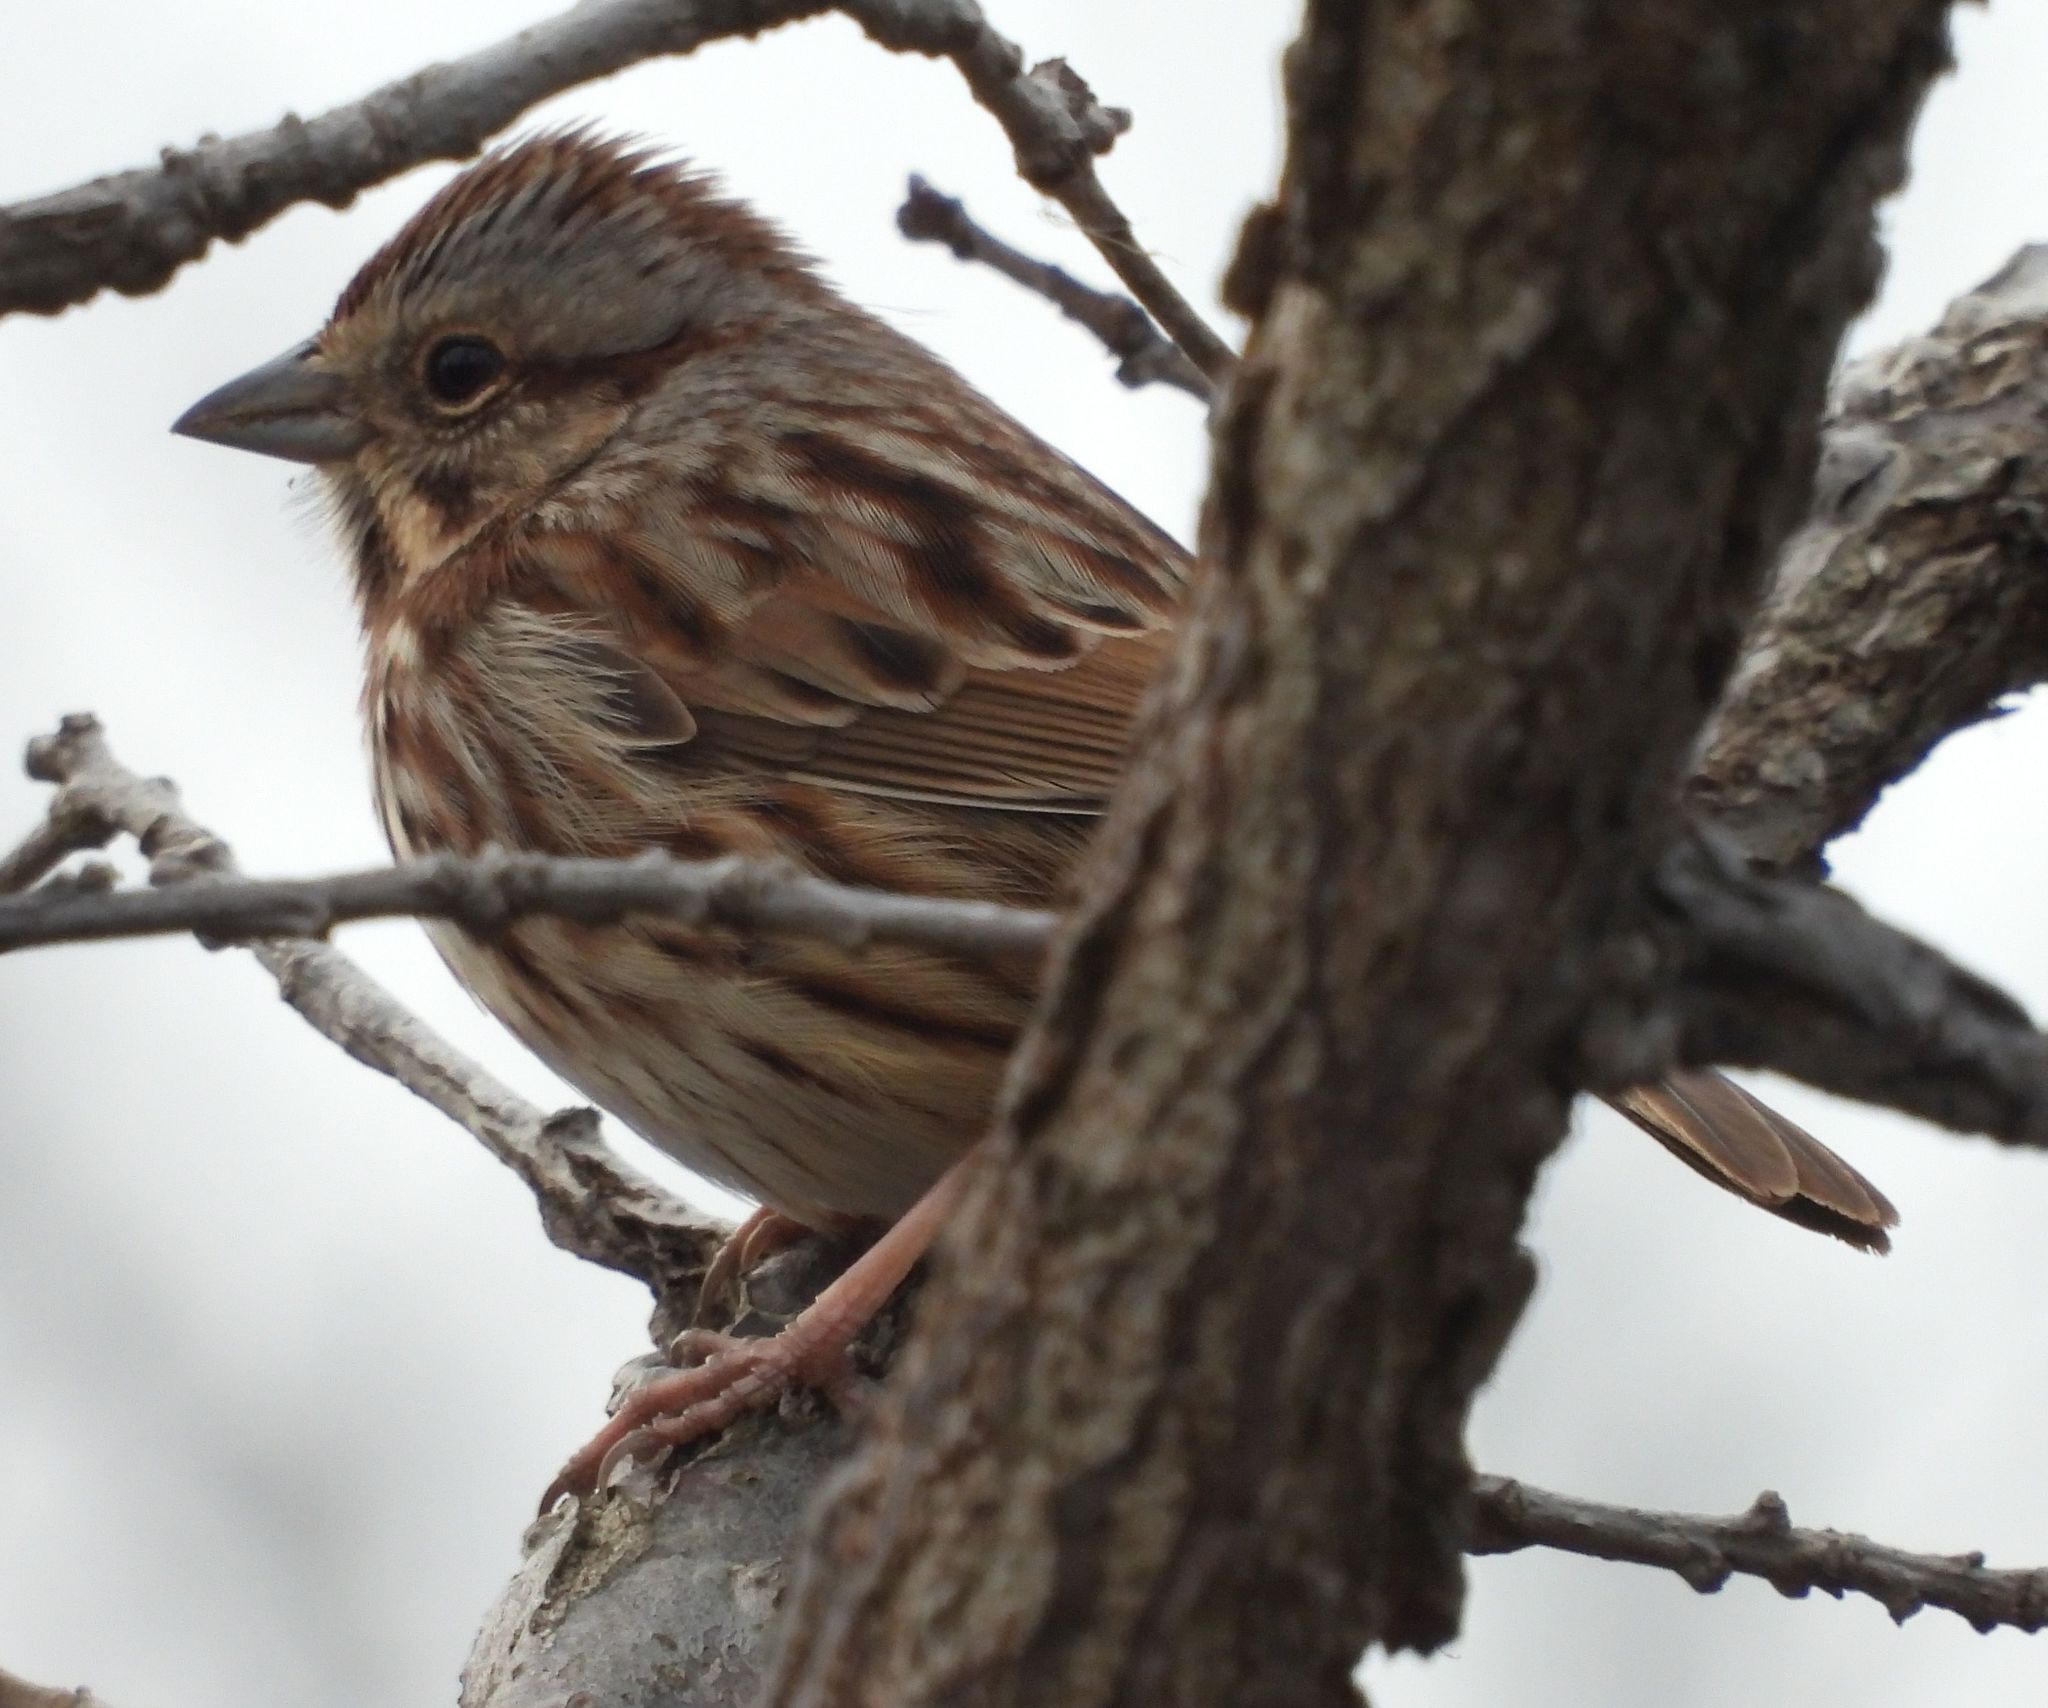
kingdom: Animalia
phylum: Chordata
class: Aves
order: Passeriformes
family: Passerellidae
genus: Melospiza
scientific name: Melospiza melodia
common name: Song sparrow
